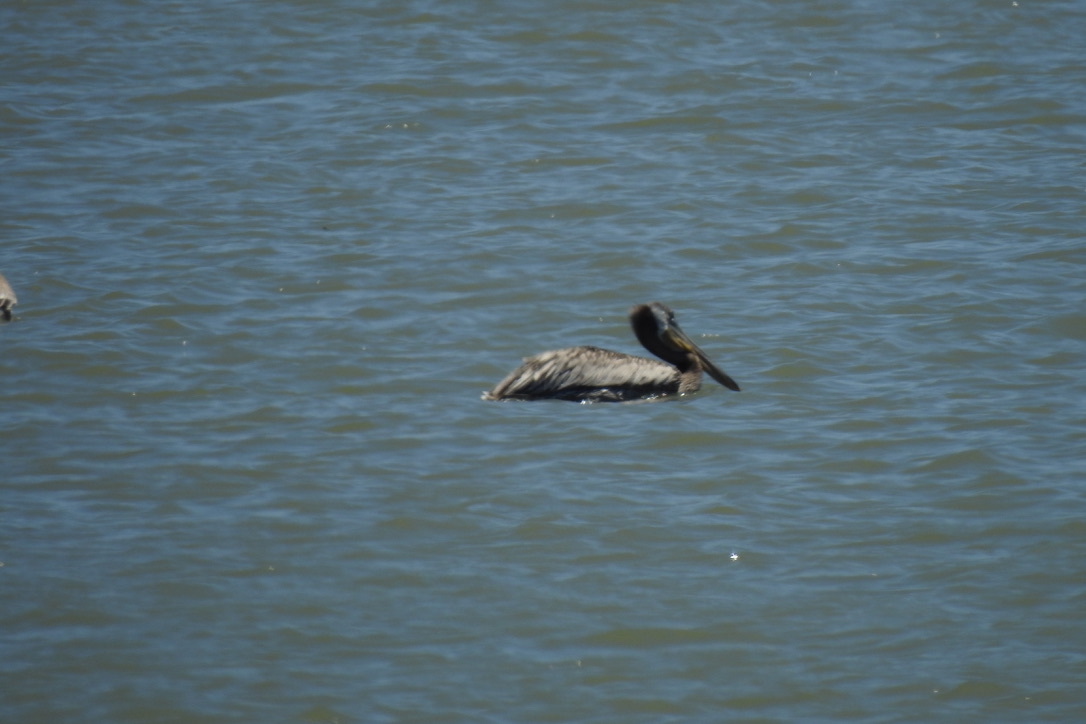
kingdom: Animalia
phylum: Chordata
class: Aves
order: Pelecaniformes
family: Pelecanidae
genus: Pelecanus
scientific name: Pelecanus occidentalis
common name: Brown pelican
